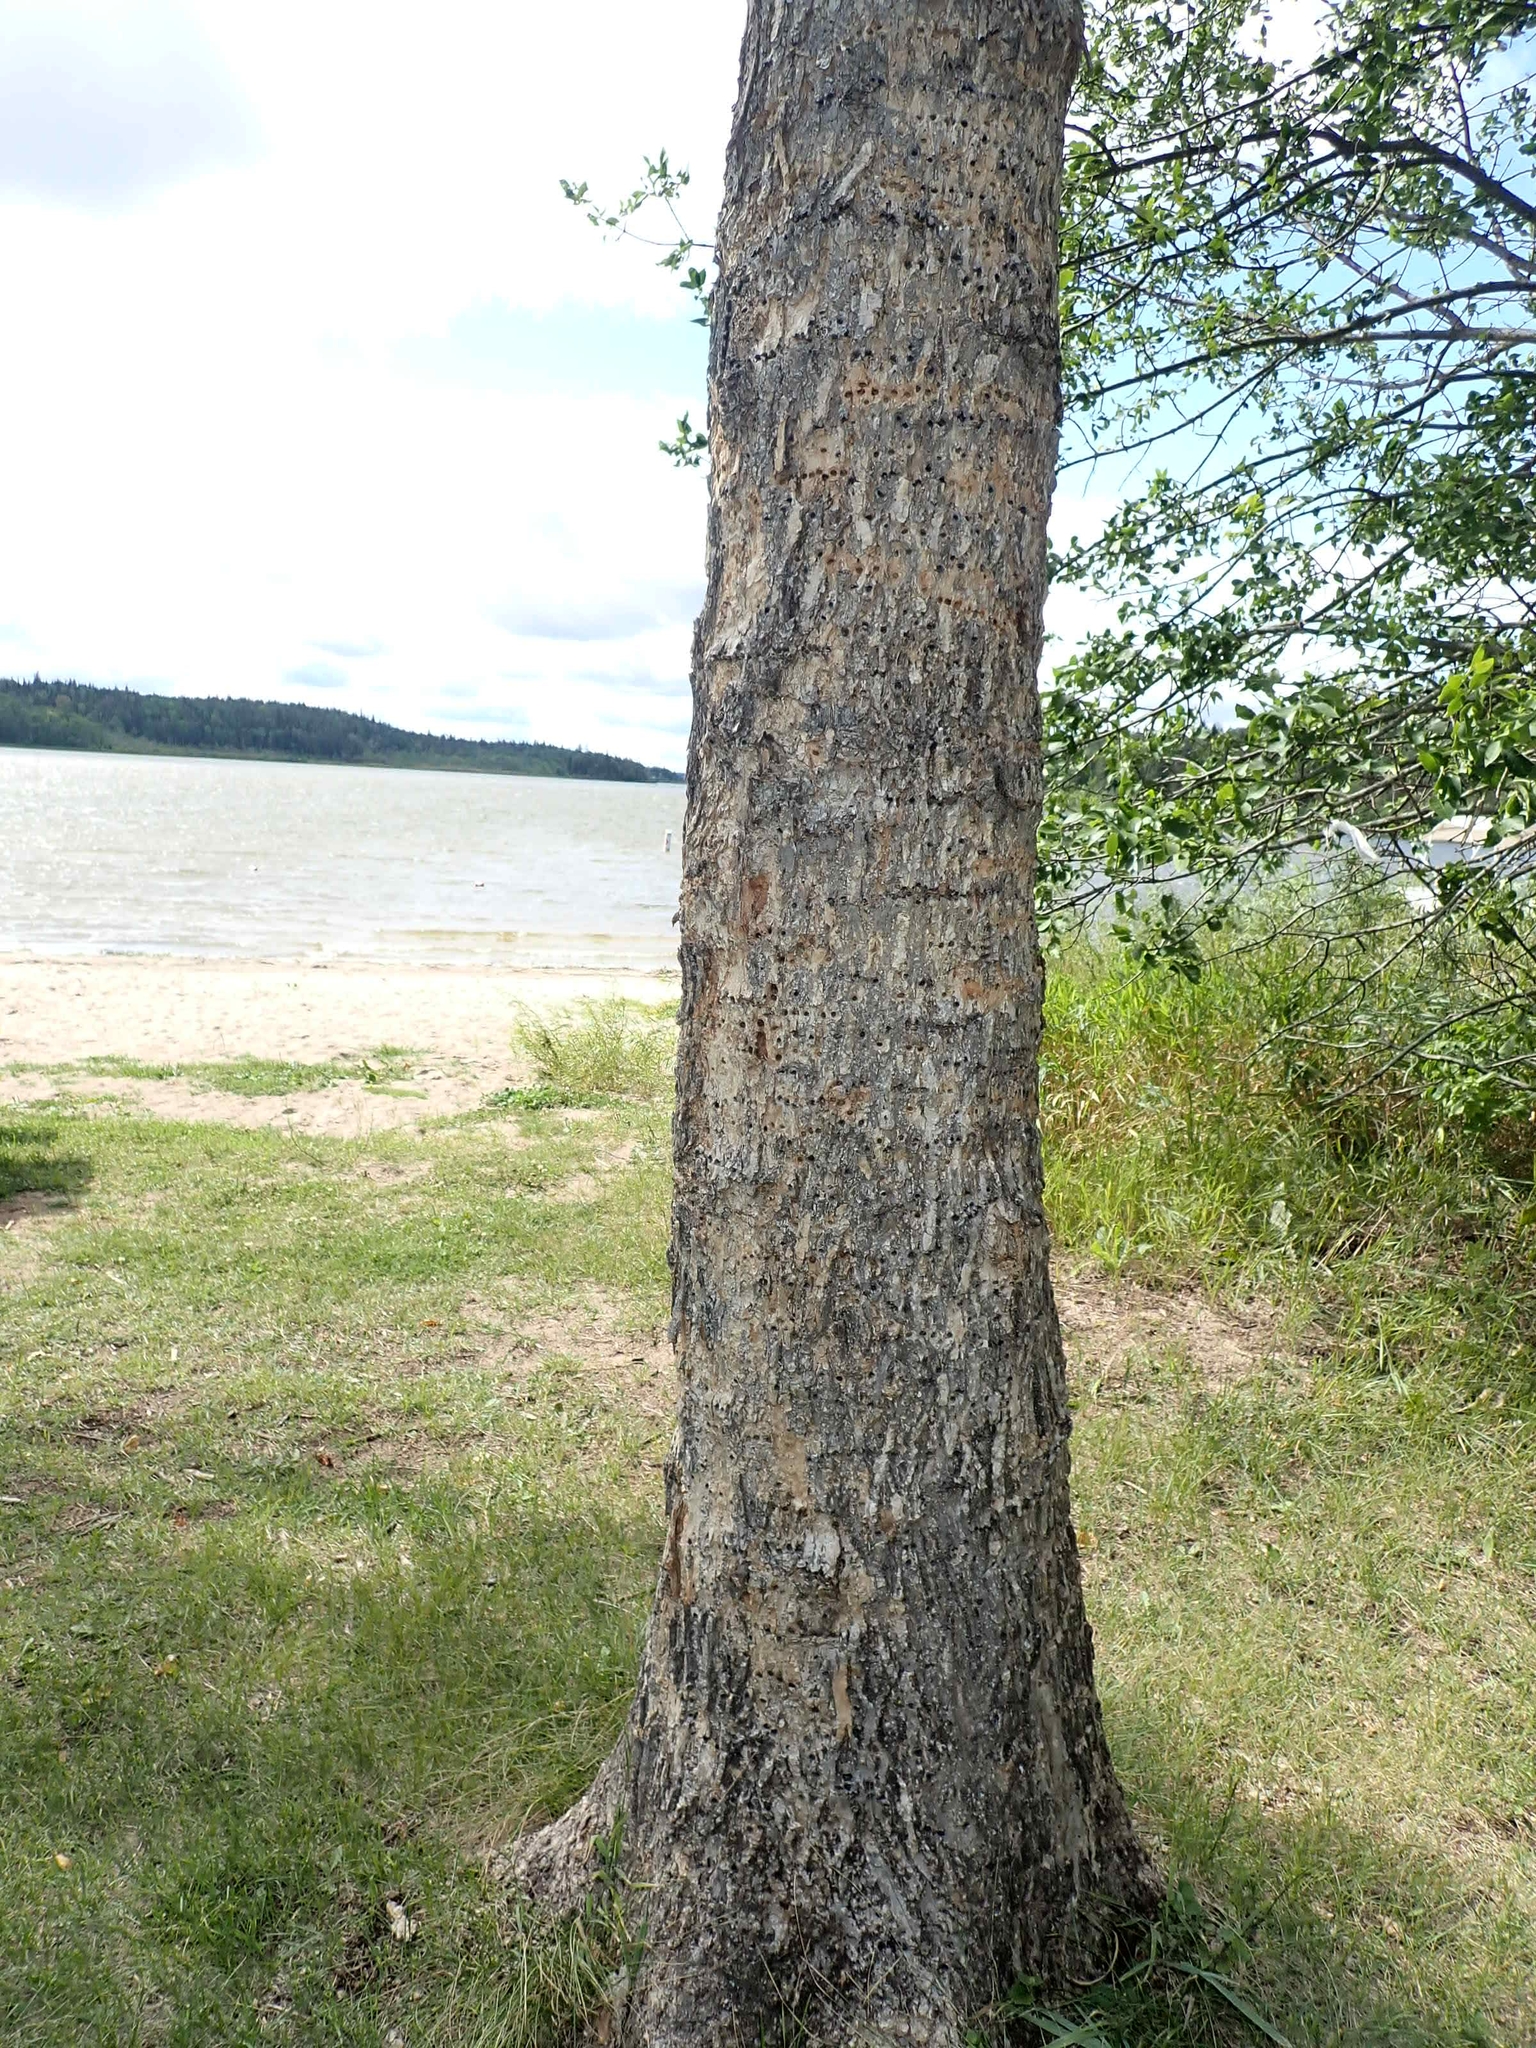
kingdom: Plantae
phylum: Tracheophyta
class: Magnoliopsida
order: Malpighiales
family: Salicaceae
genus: Populus
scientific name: Populus balsamifera
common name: Balsam poplar
